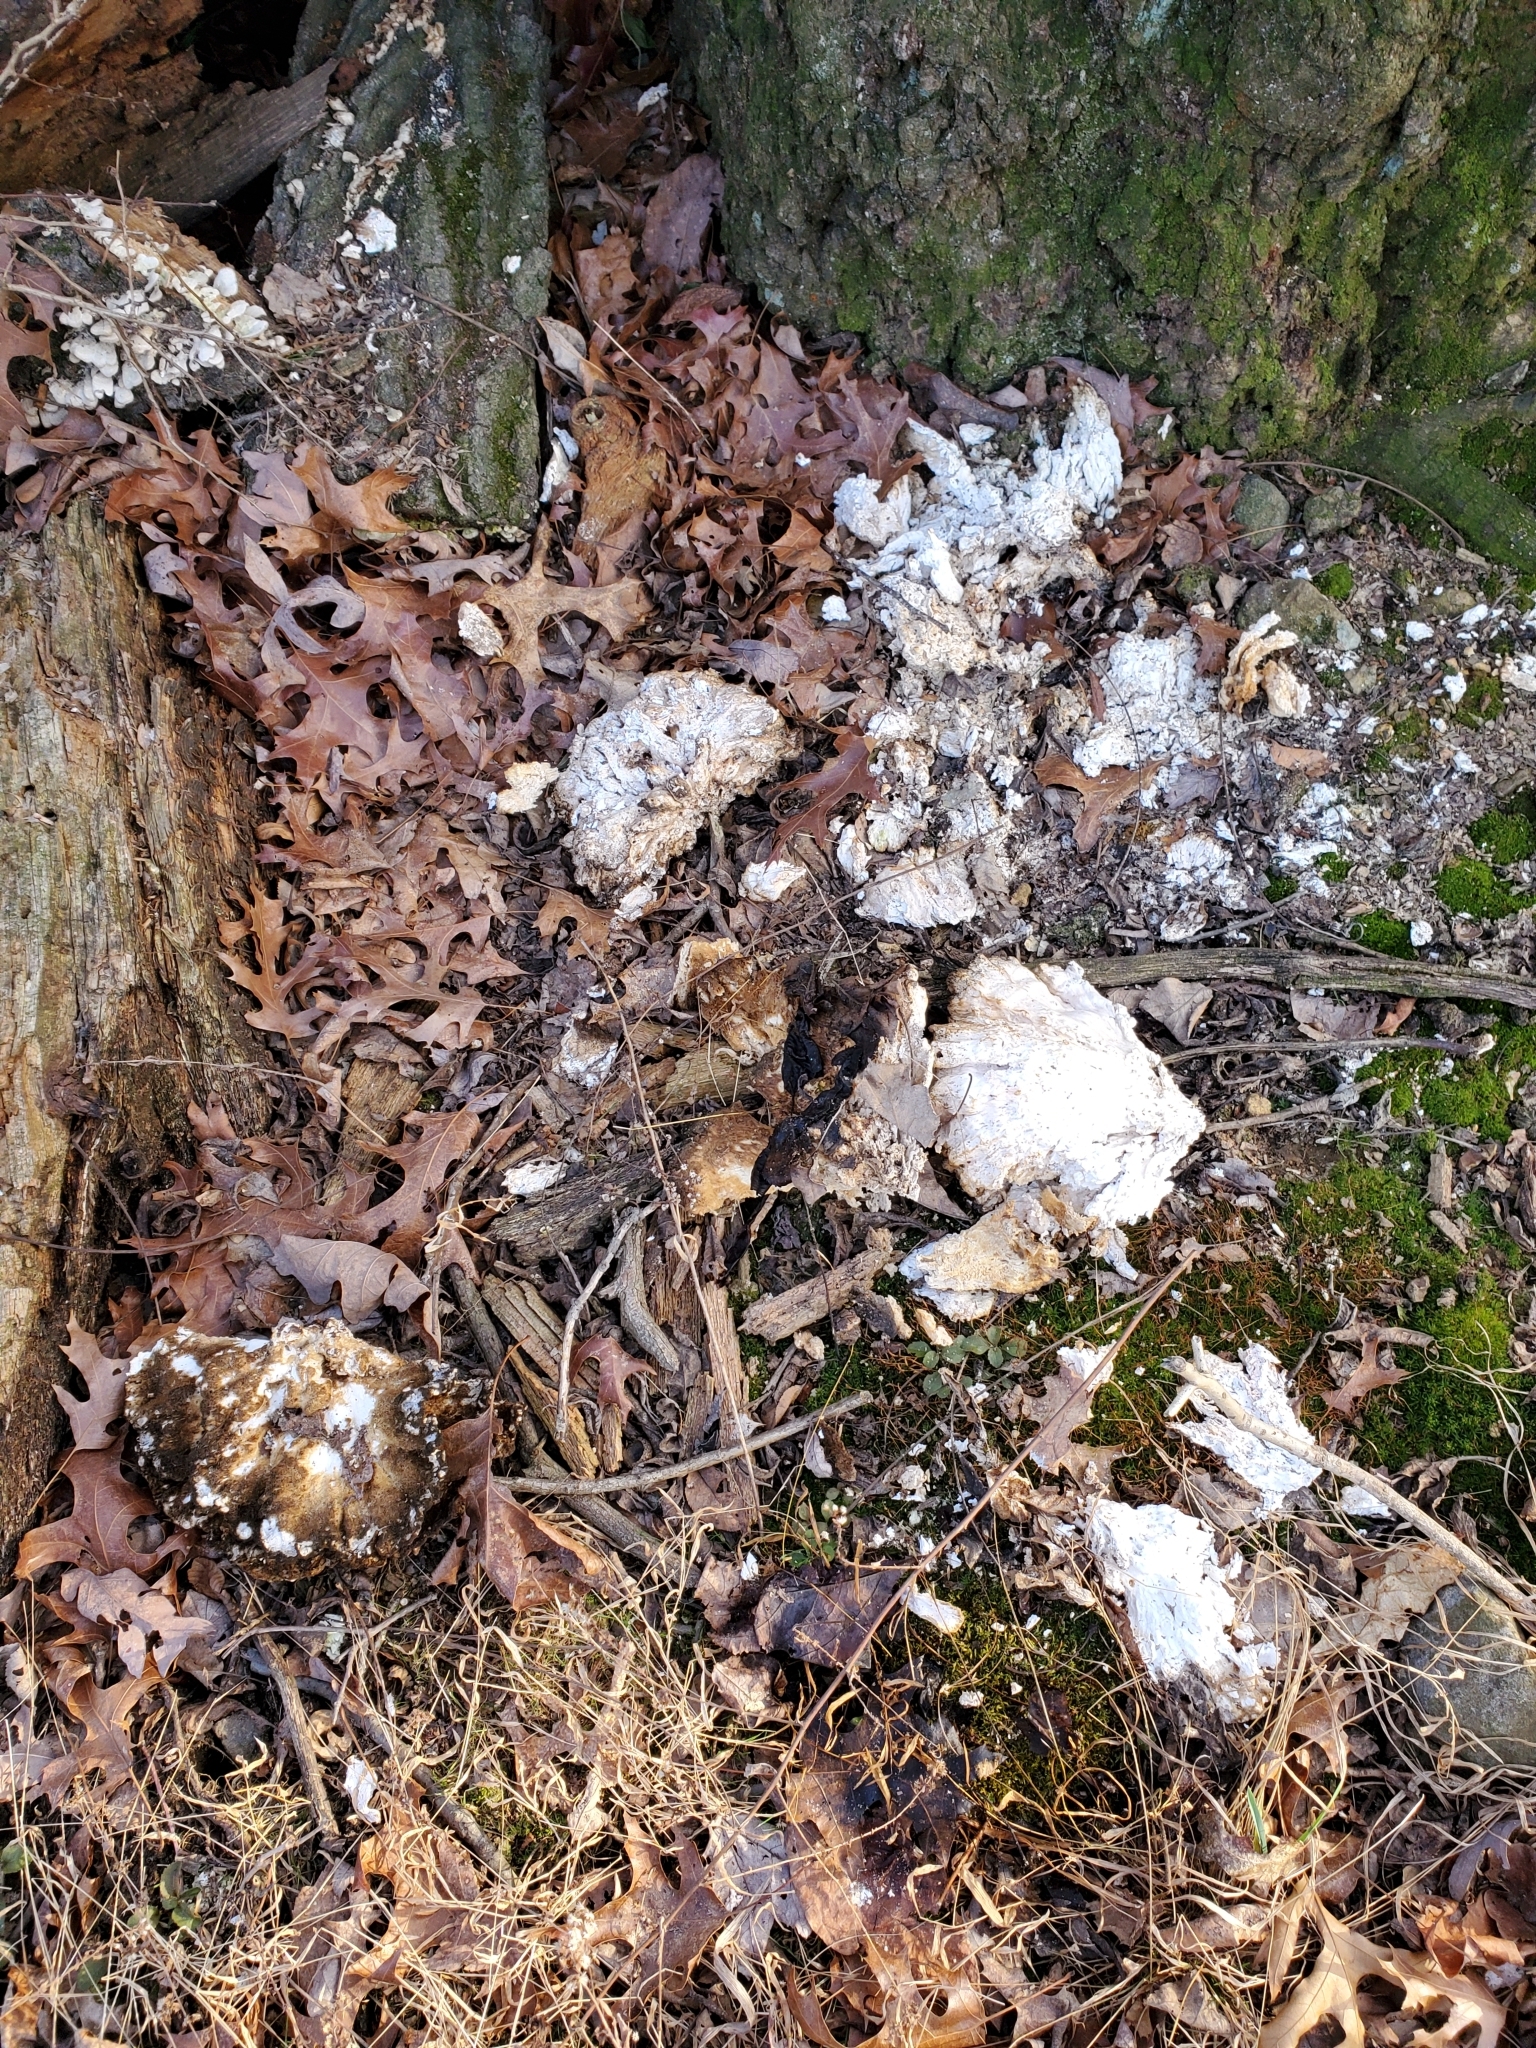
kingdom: Fungi
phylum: Basidiomycota
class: Agaricomycetes
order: Polyporales
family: Laetiporaceae
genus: Laetiporus
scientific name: Laetiporus sulphureus
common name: Chicken of the woods
